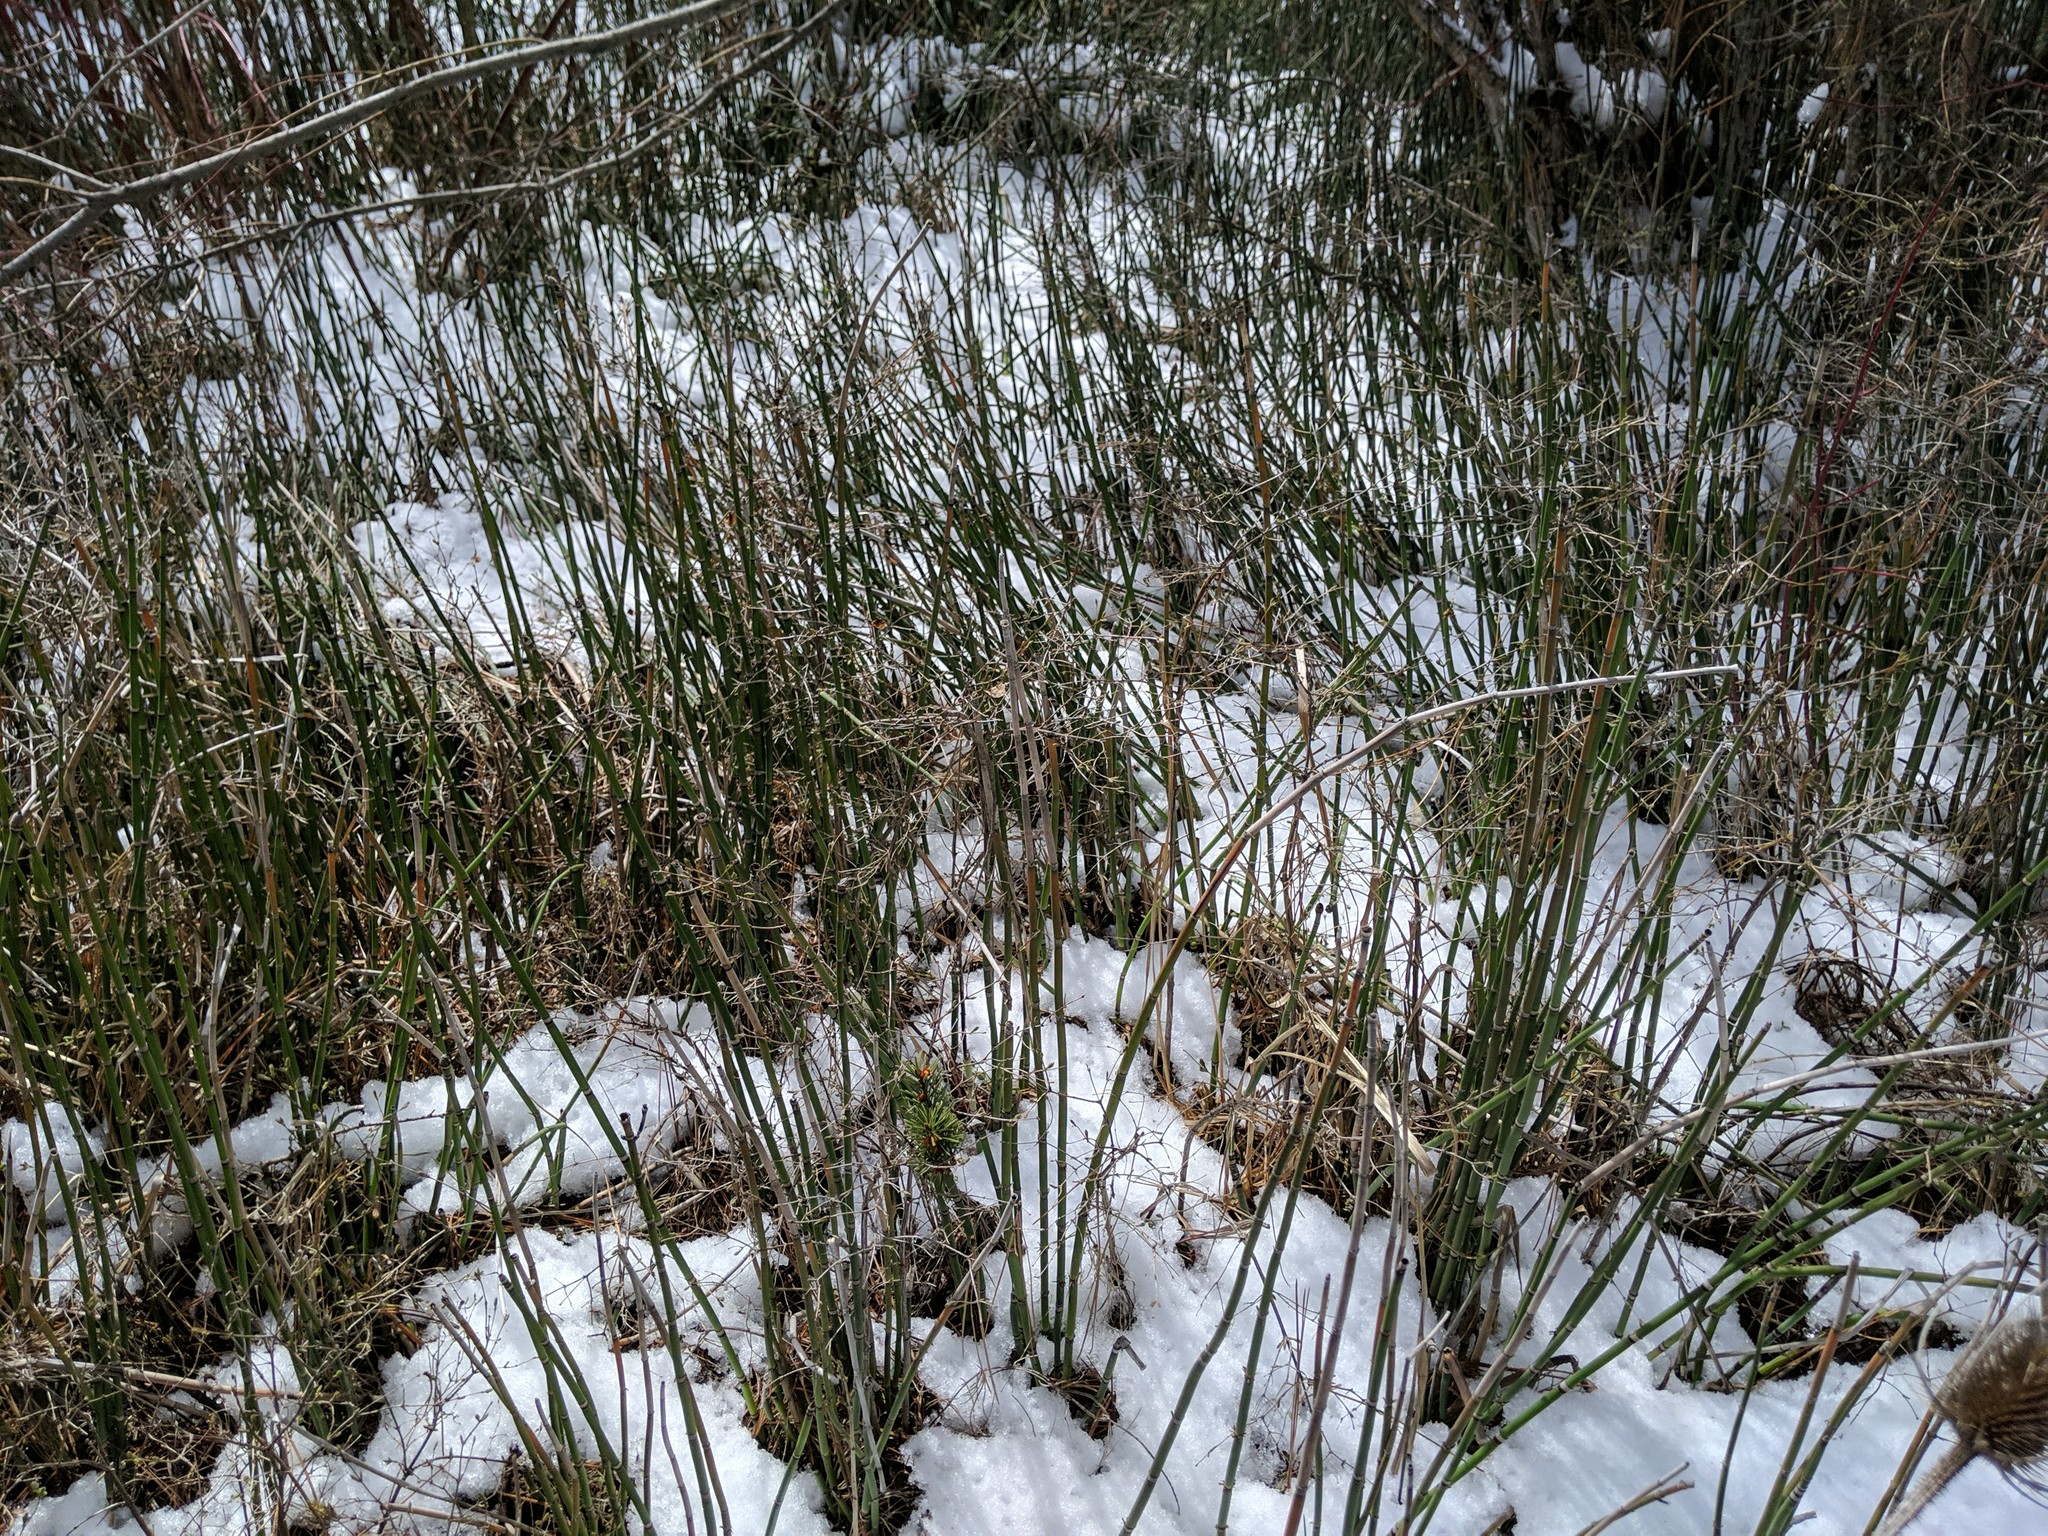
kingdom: Plantae
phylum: Tracheophyta
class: Polypodiopsida
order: Equisetales
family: Equisetaceae
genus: Equisetum
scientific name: Equisetum praealtum
